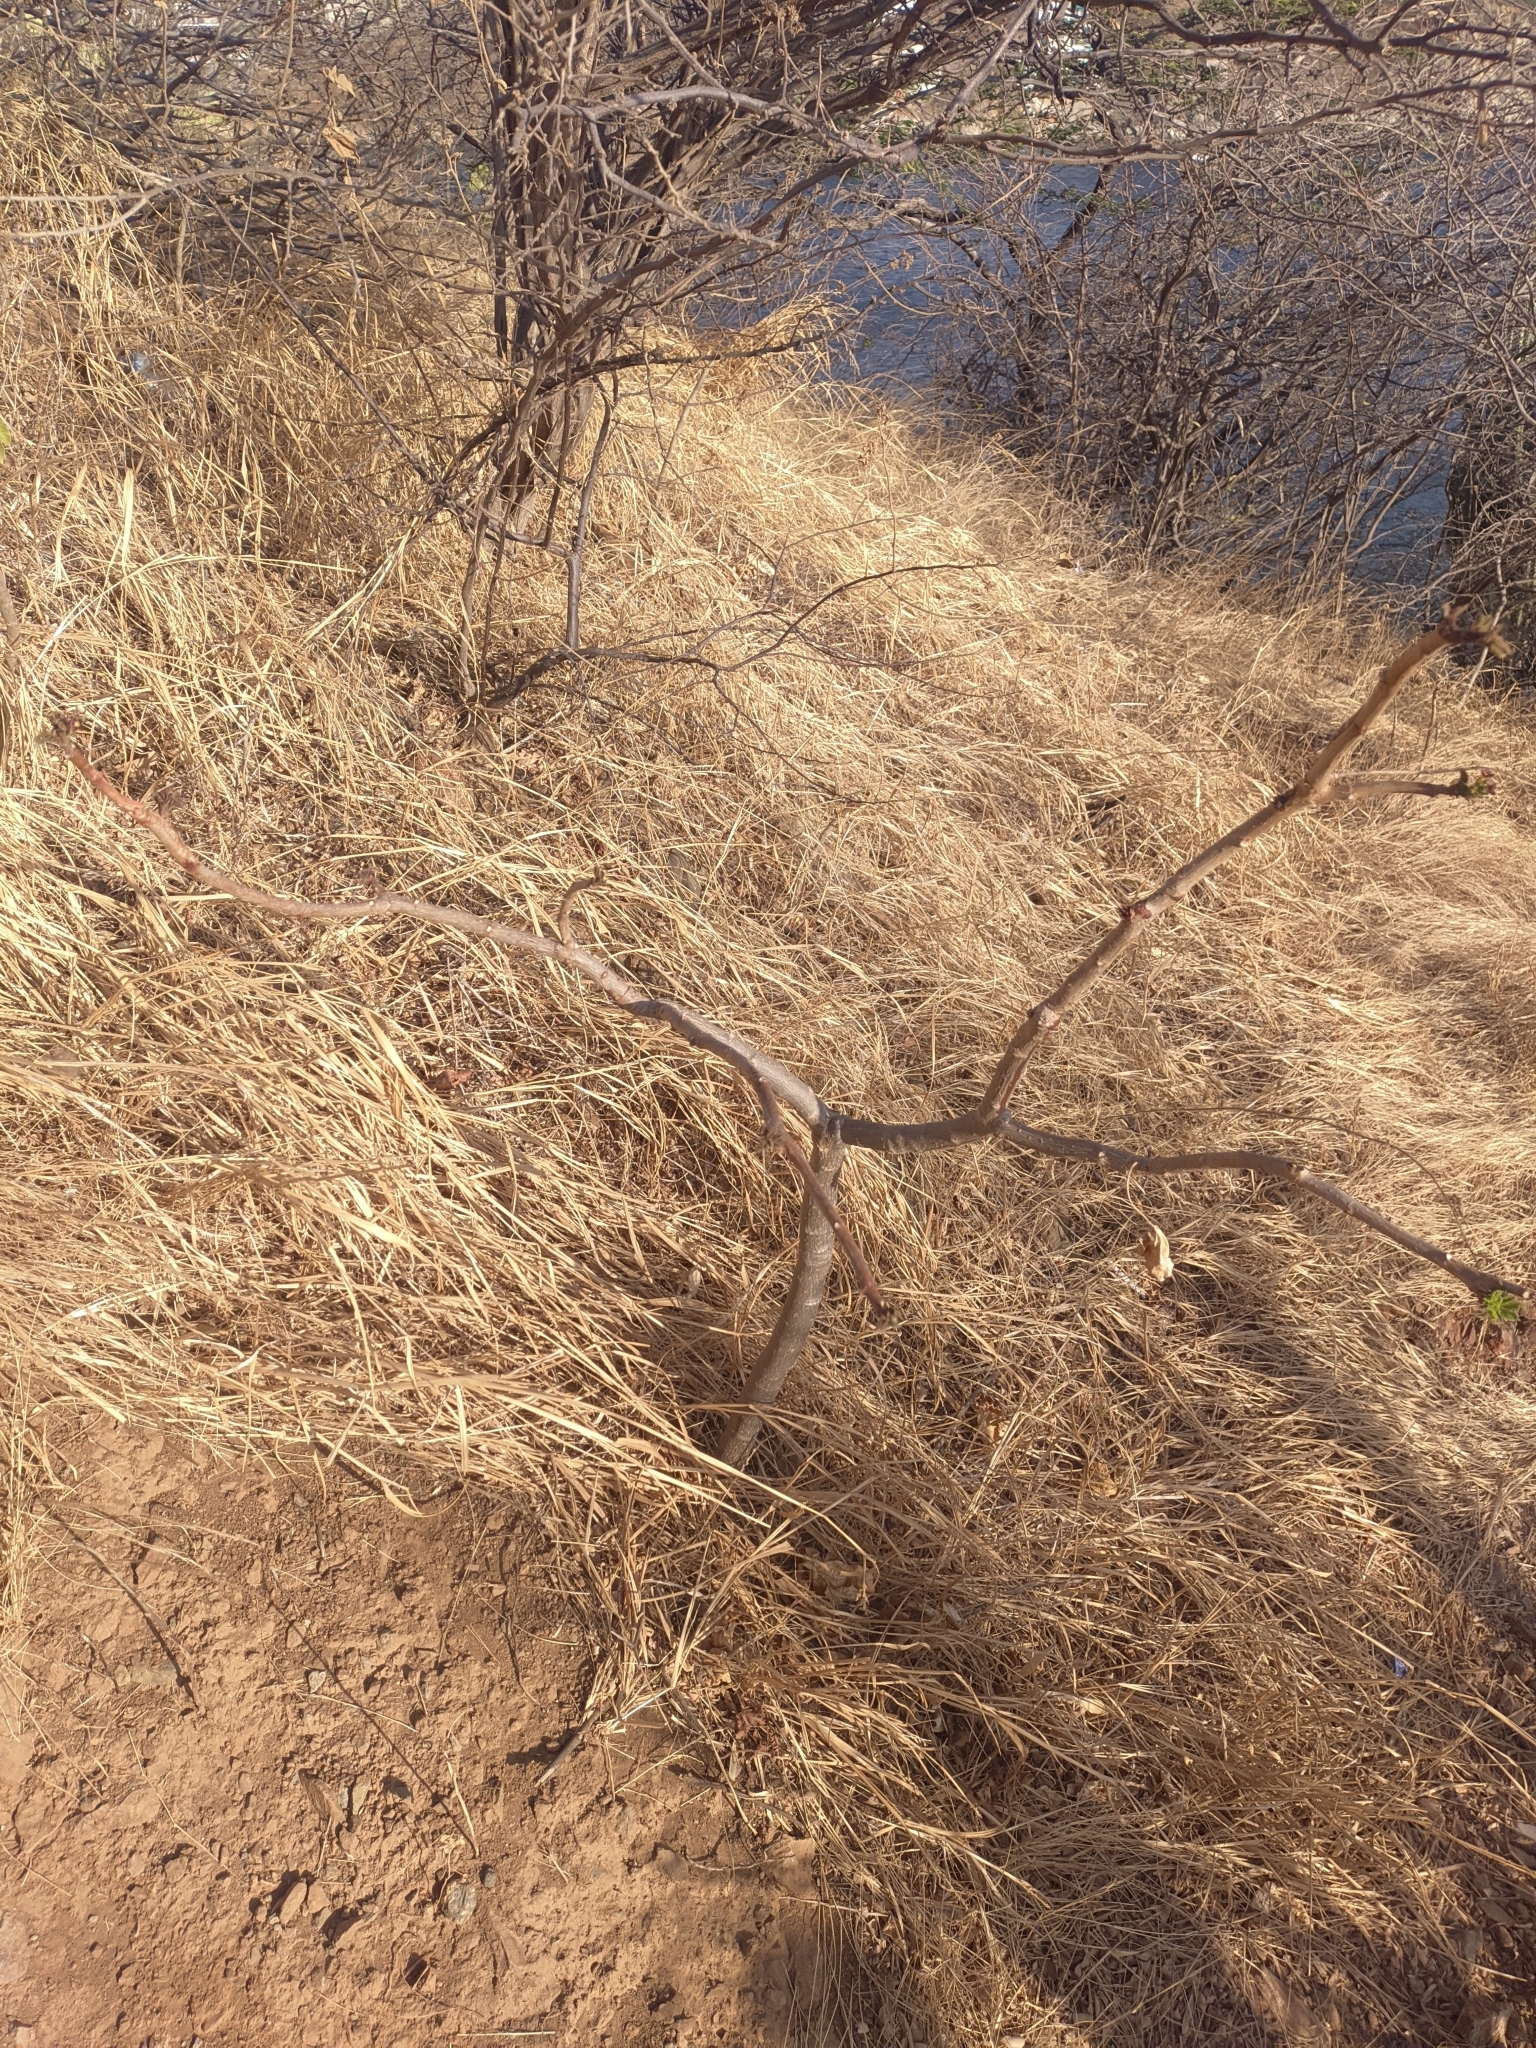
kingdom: Plantae
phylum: Tracheophyta
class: Magnoliopsida
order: Malpighiales
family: Euphorbiaceae
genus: Jatropha
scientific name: Jatropha gossypiifolia
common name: Bellyache bush
